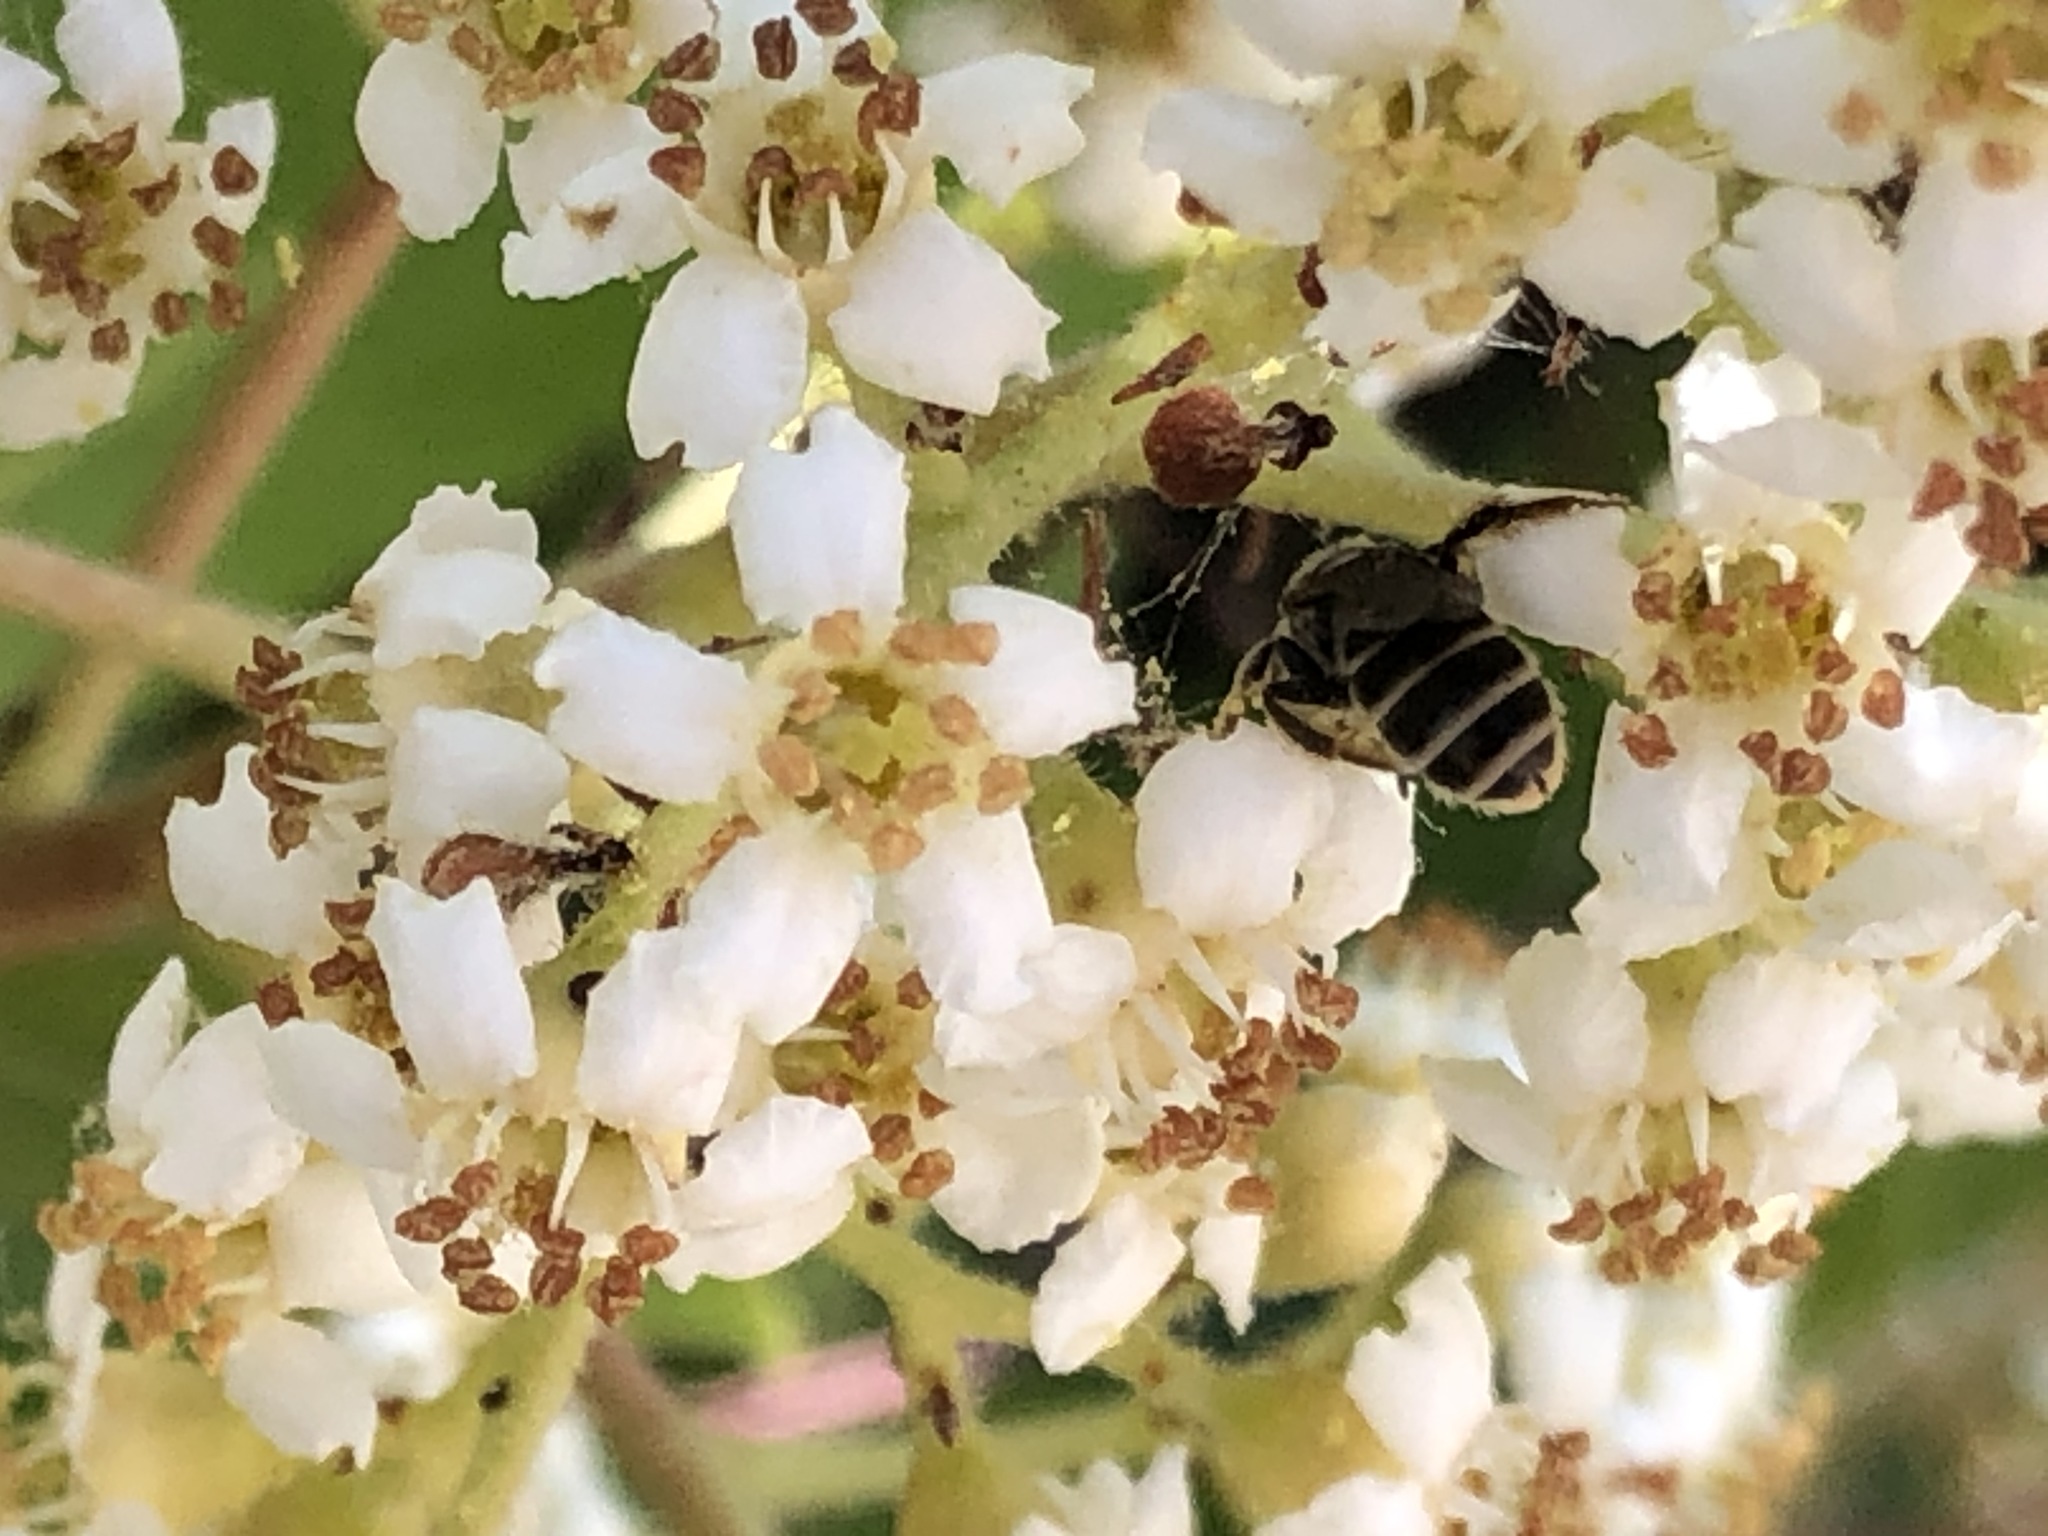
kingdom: Animalia
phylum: Arthropoda
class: Insecta
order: Hymenoptera
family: Halictidae
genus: Halictus
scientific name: Halictus tripartitus
